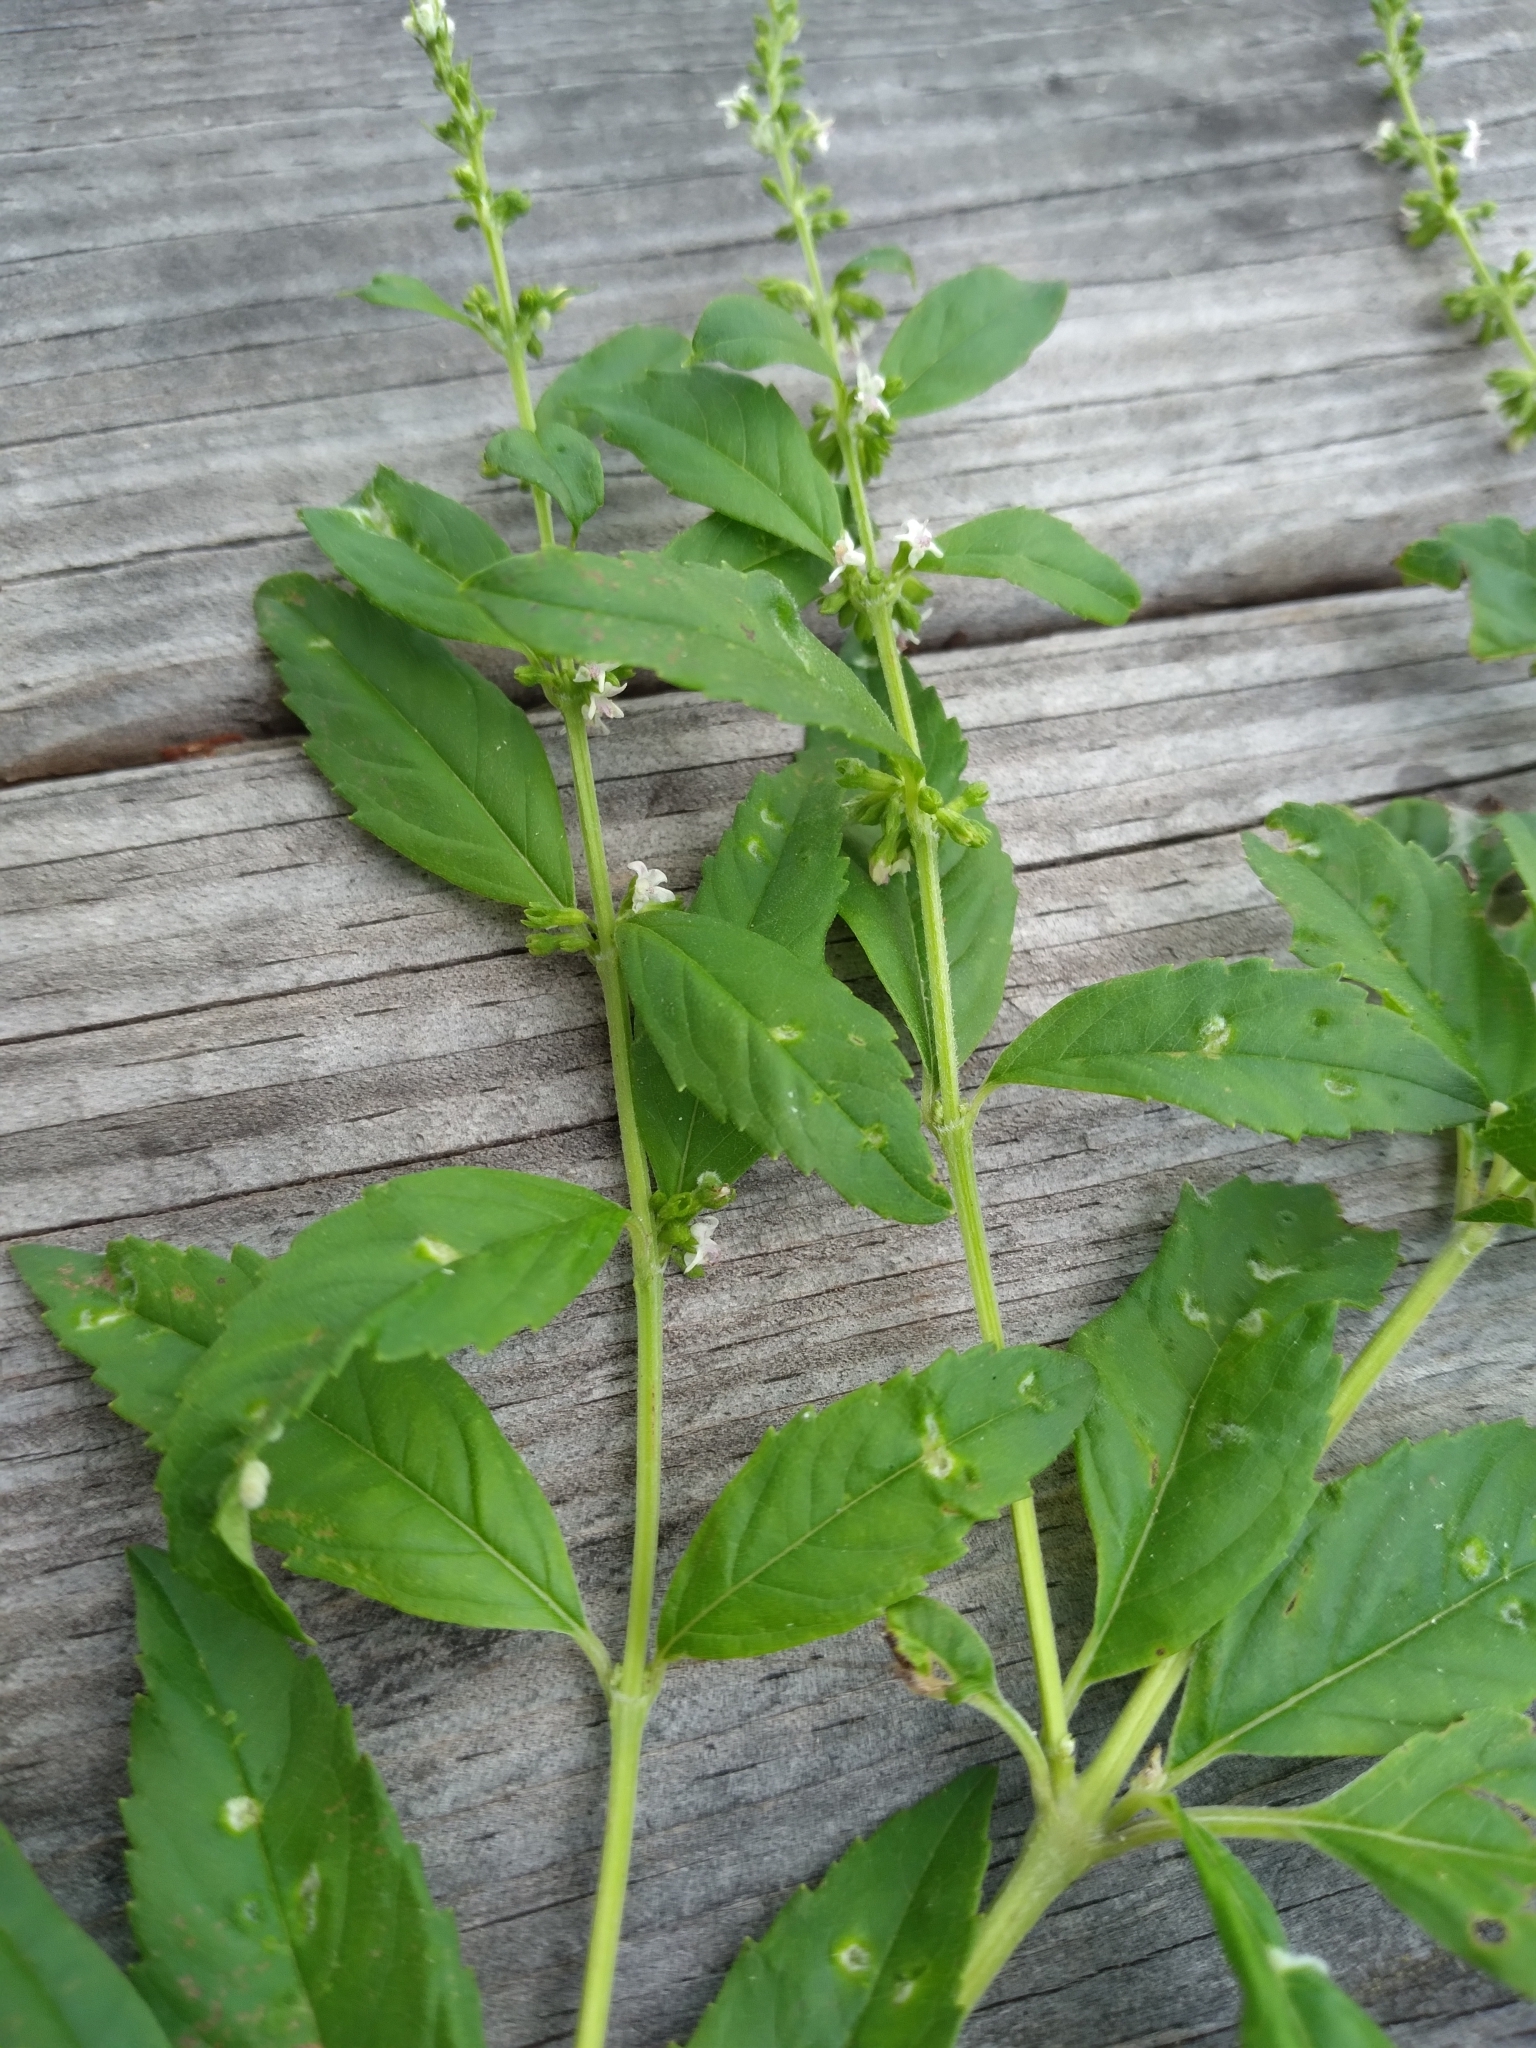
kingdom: Plantae
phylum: Tracheophyta
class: Magnoliopsida
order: Lamiales
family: Lamiaceae
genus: Condea
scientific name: Condea verticillata
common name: John charles
